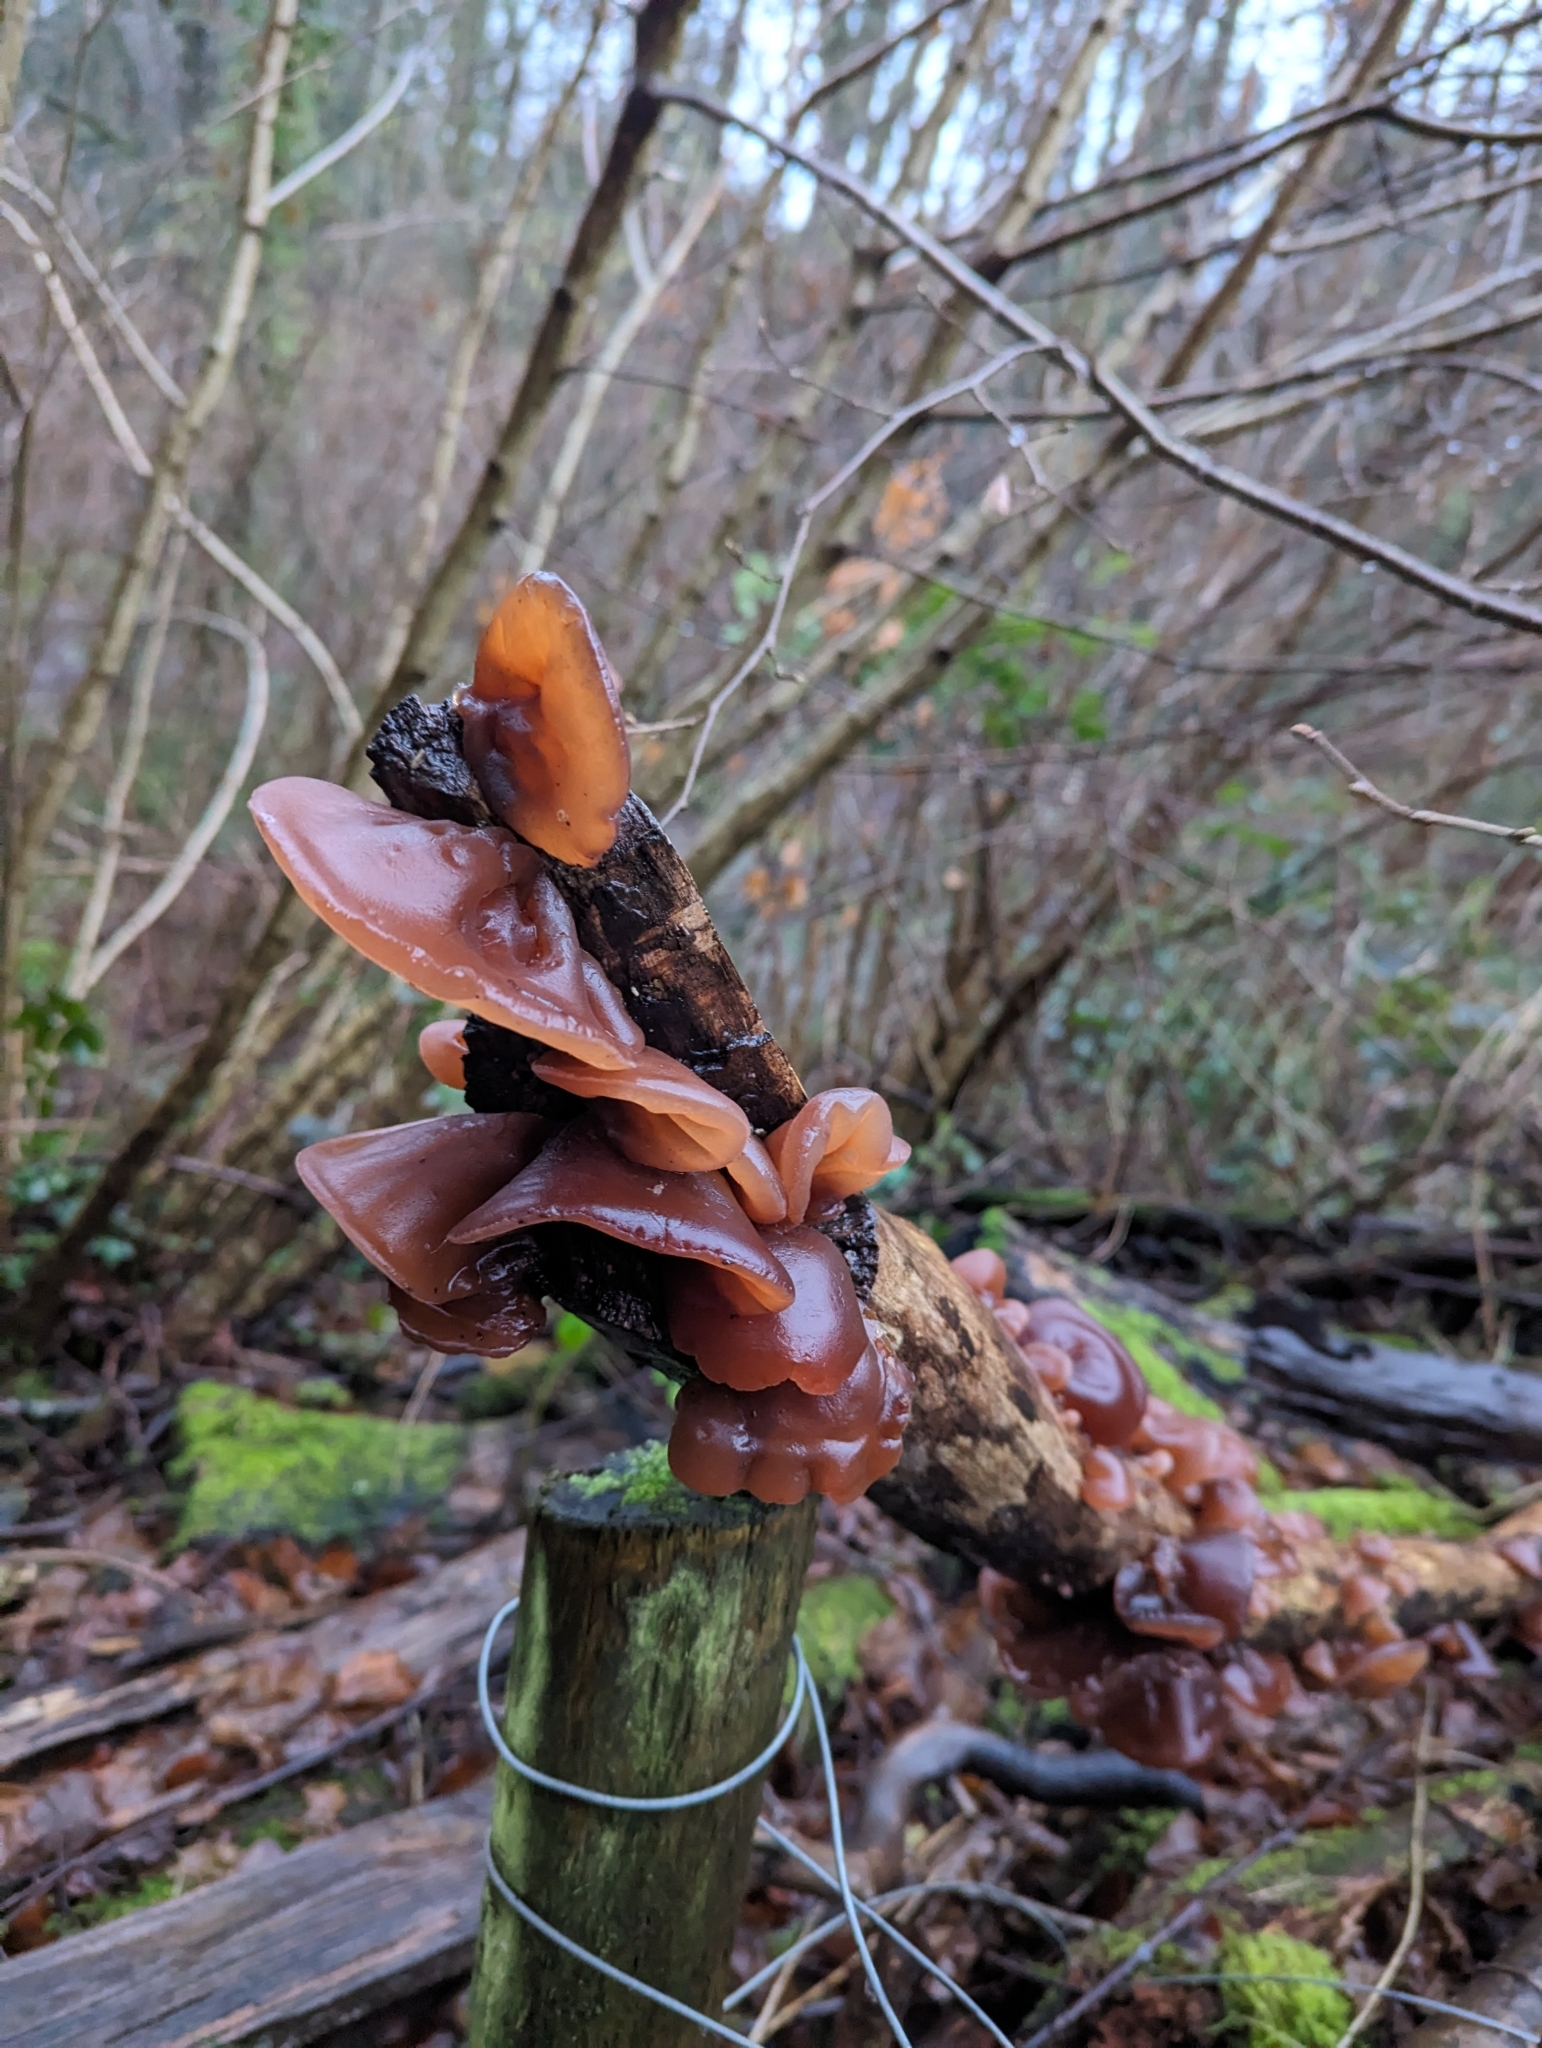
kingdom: Fungi
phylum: Basidiomycota
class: Agaricomycetes
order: Auriculariales
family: Auriculariaceae
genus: Auricularia
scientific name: Auricularia auricula-judae
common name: Jelly ear
